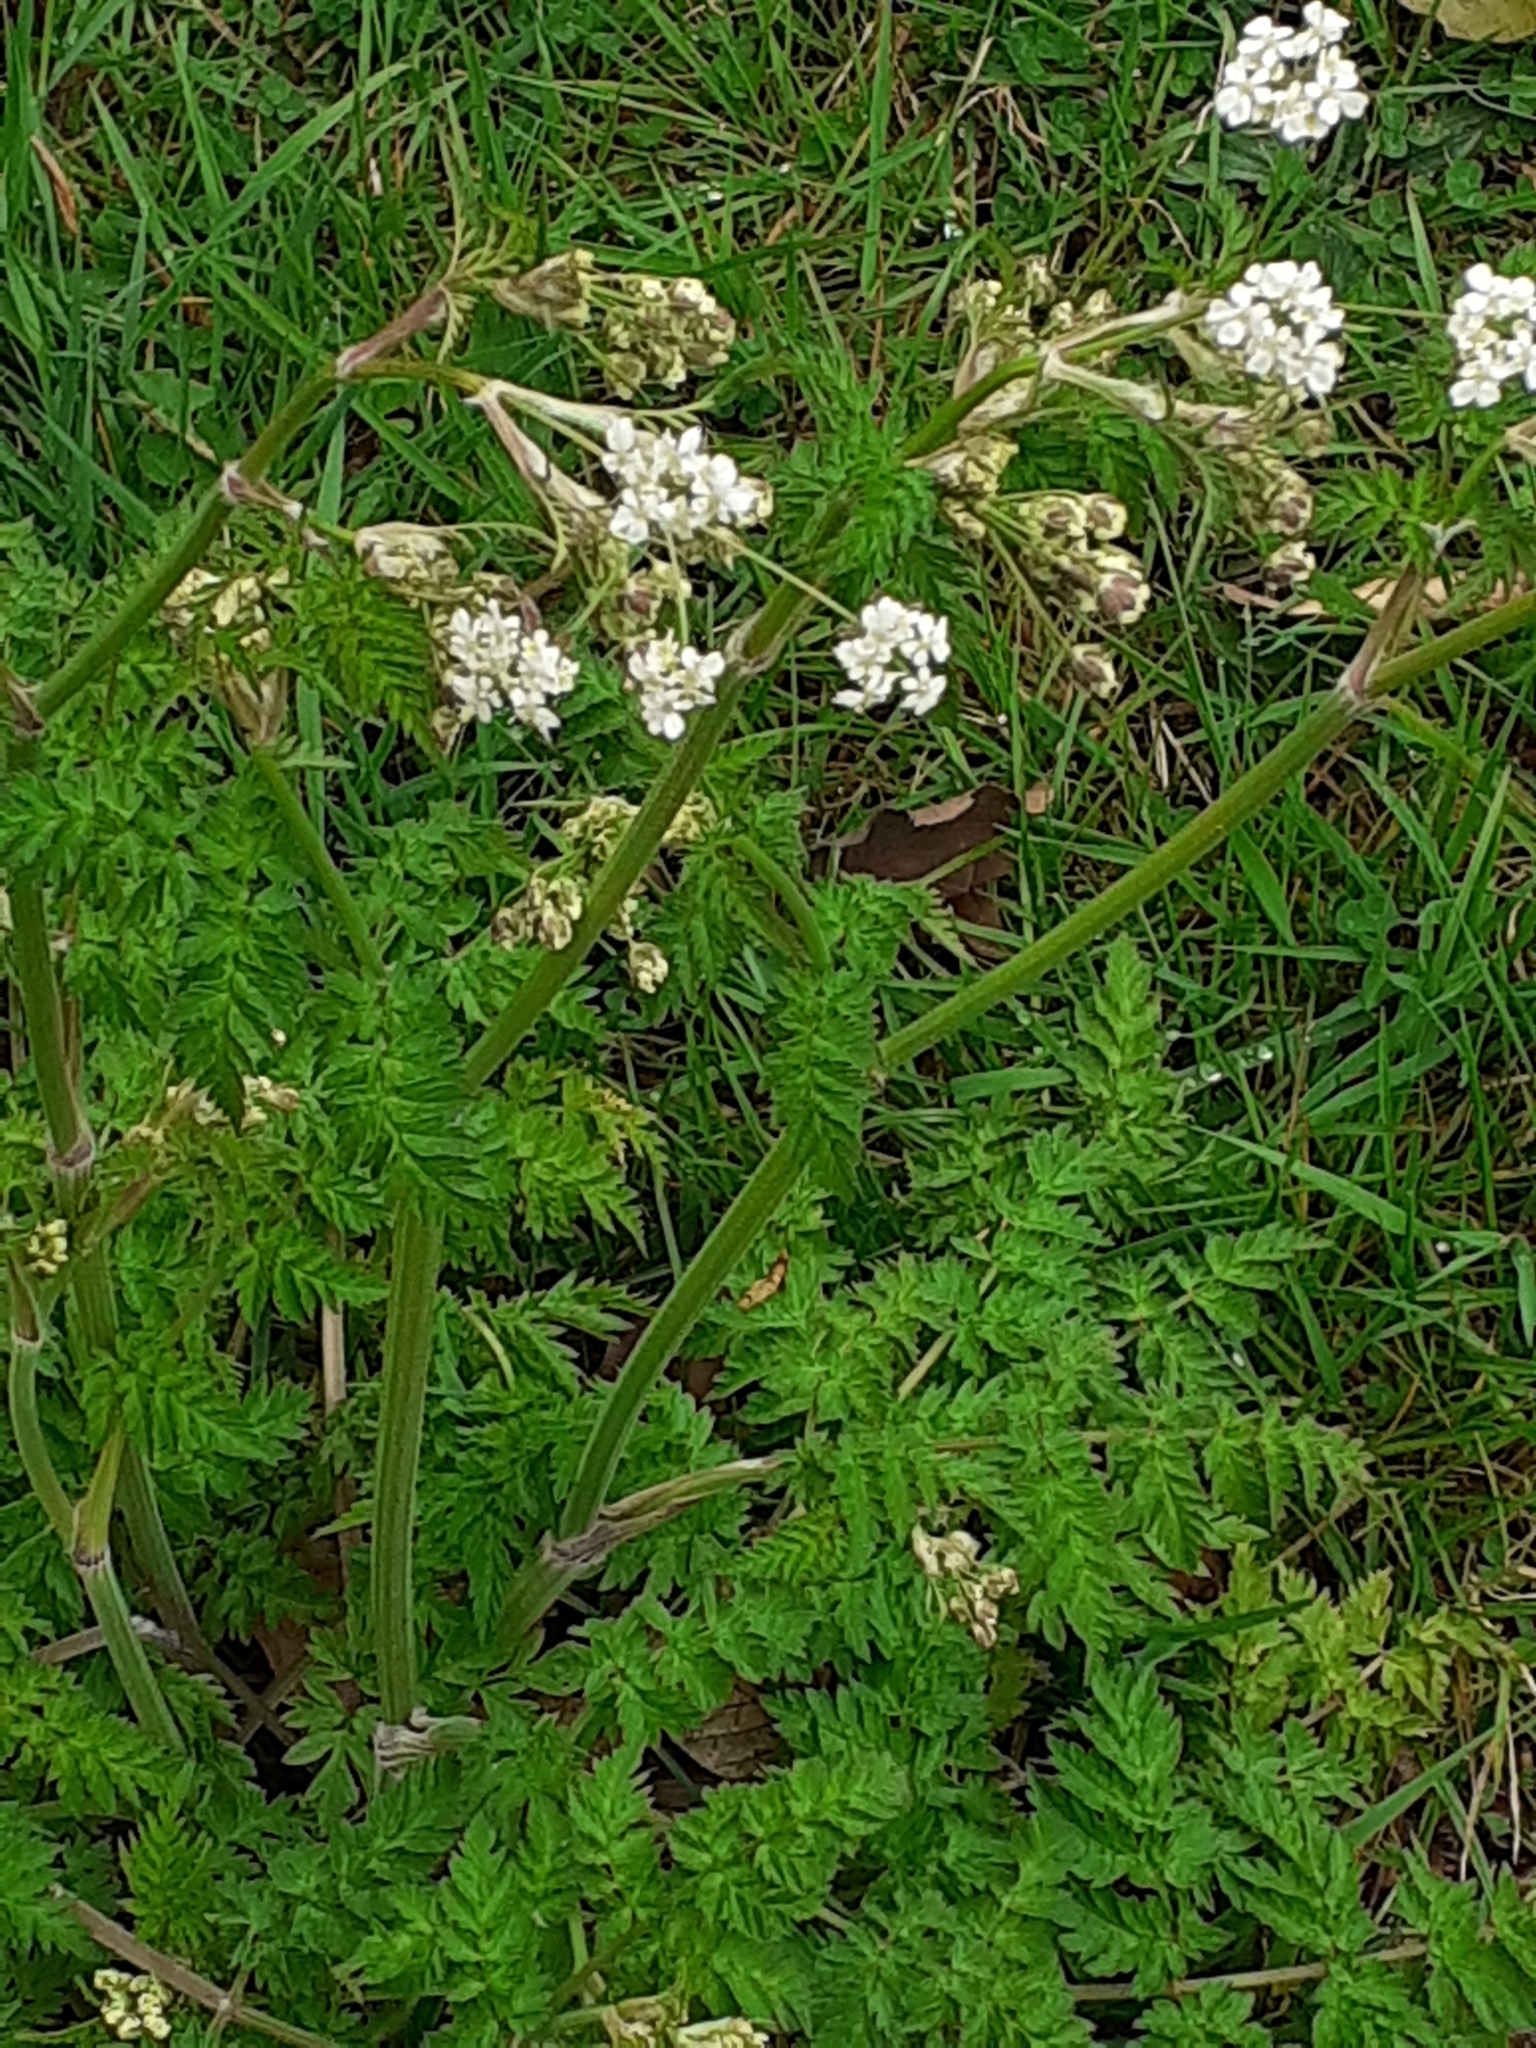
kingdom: Plantae
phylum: Tracheophyta
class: Magnoliopsida
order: Apiales
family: Apiaceae
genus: Anthriscus
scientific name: Anthriscus sylvestris
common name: Cow parsley
